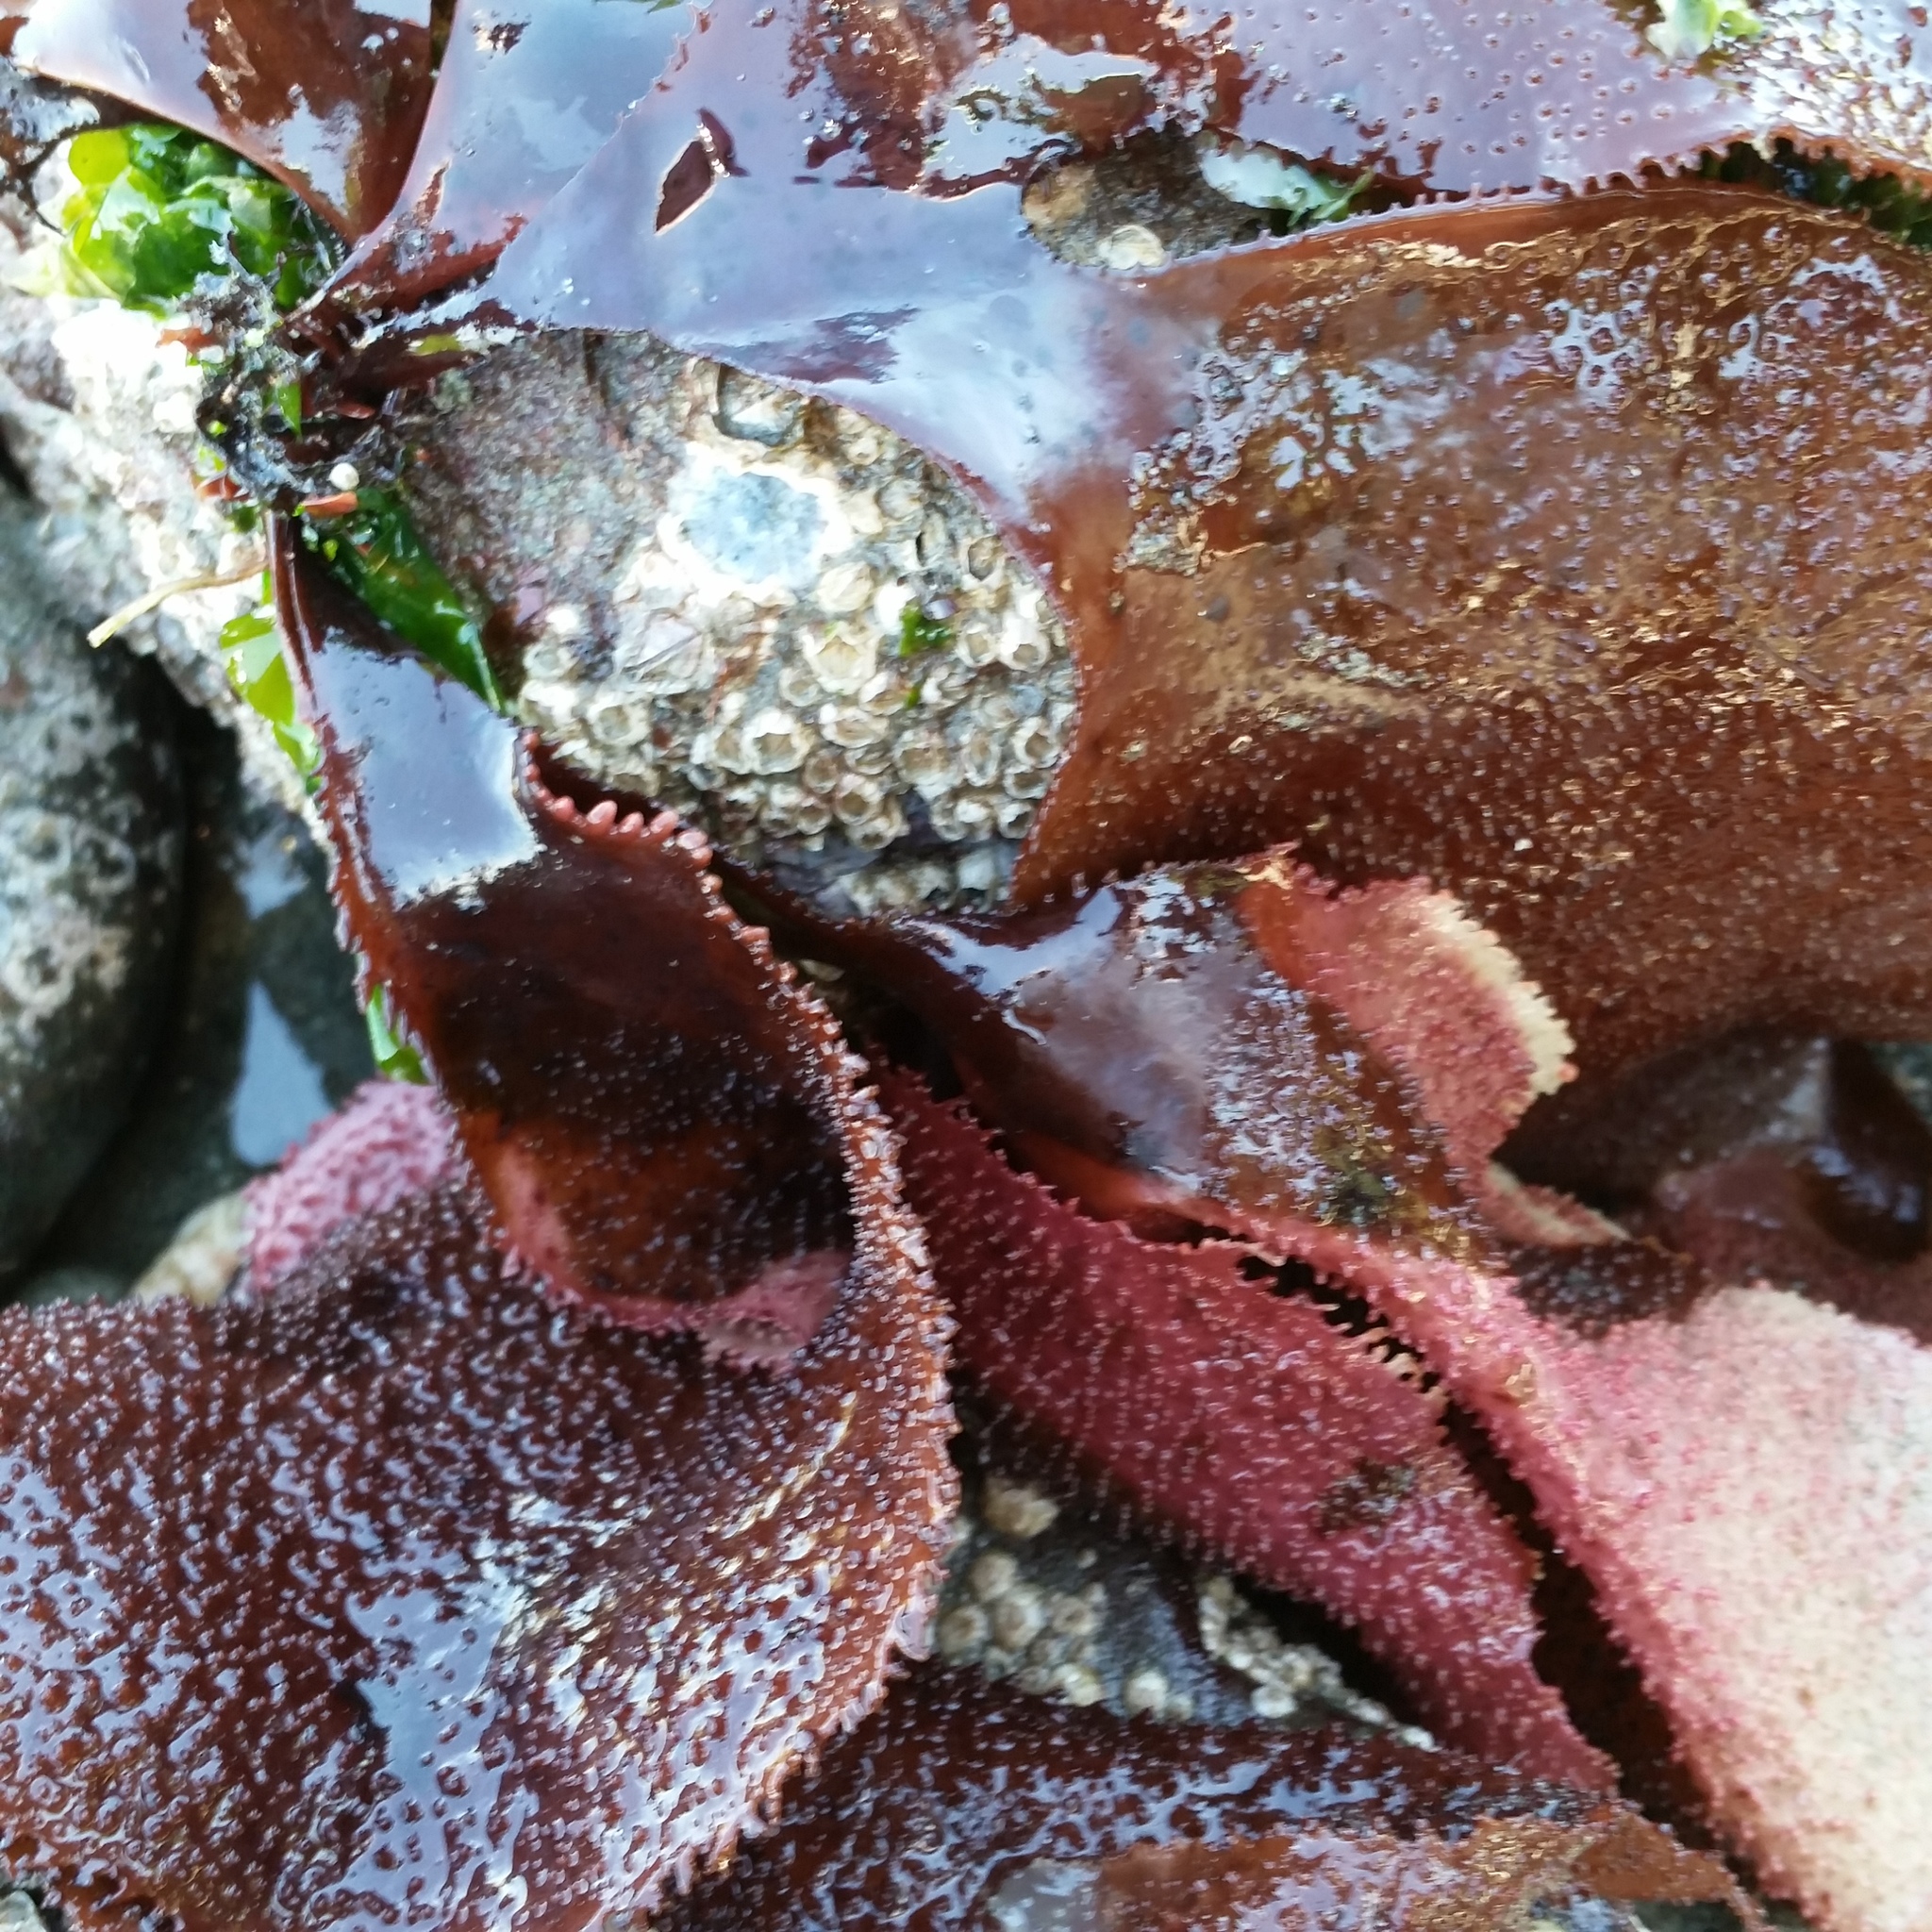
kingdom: Plantae
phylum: Rhodophyta
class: Florideophyceae
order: Gigartinales
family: Gigartinaceae
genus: Chondracanthus
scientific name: Chondracanthus exasperatus
